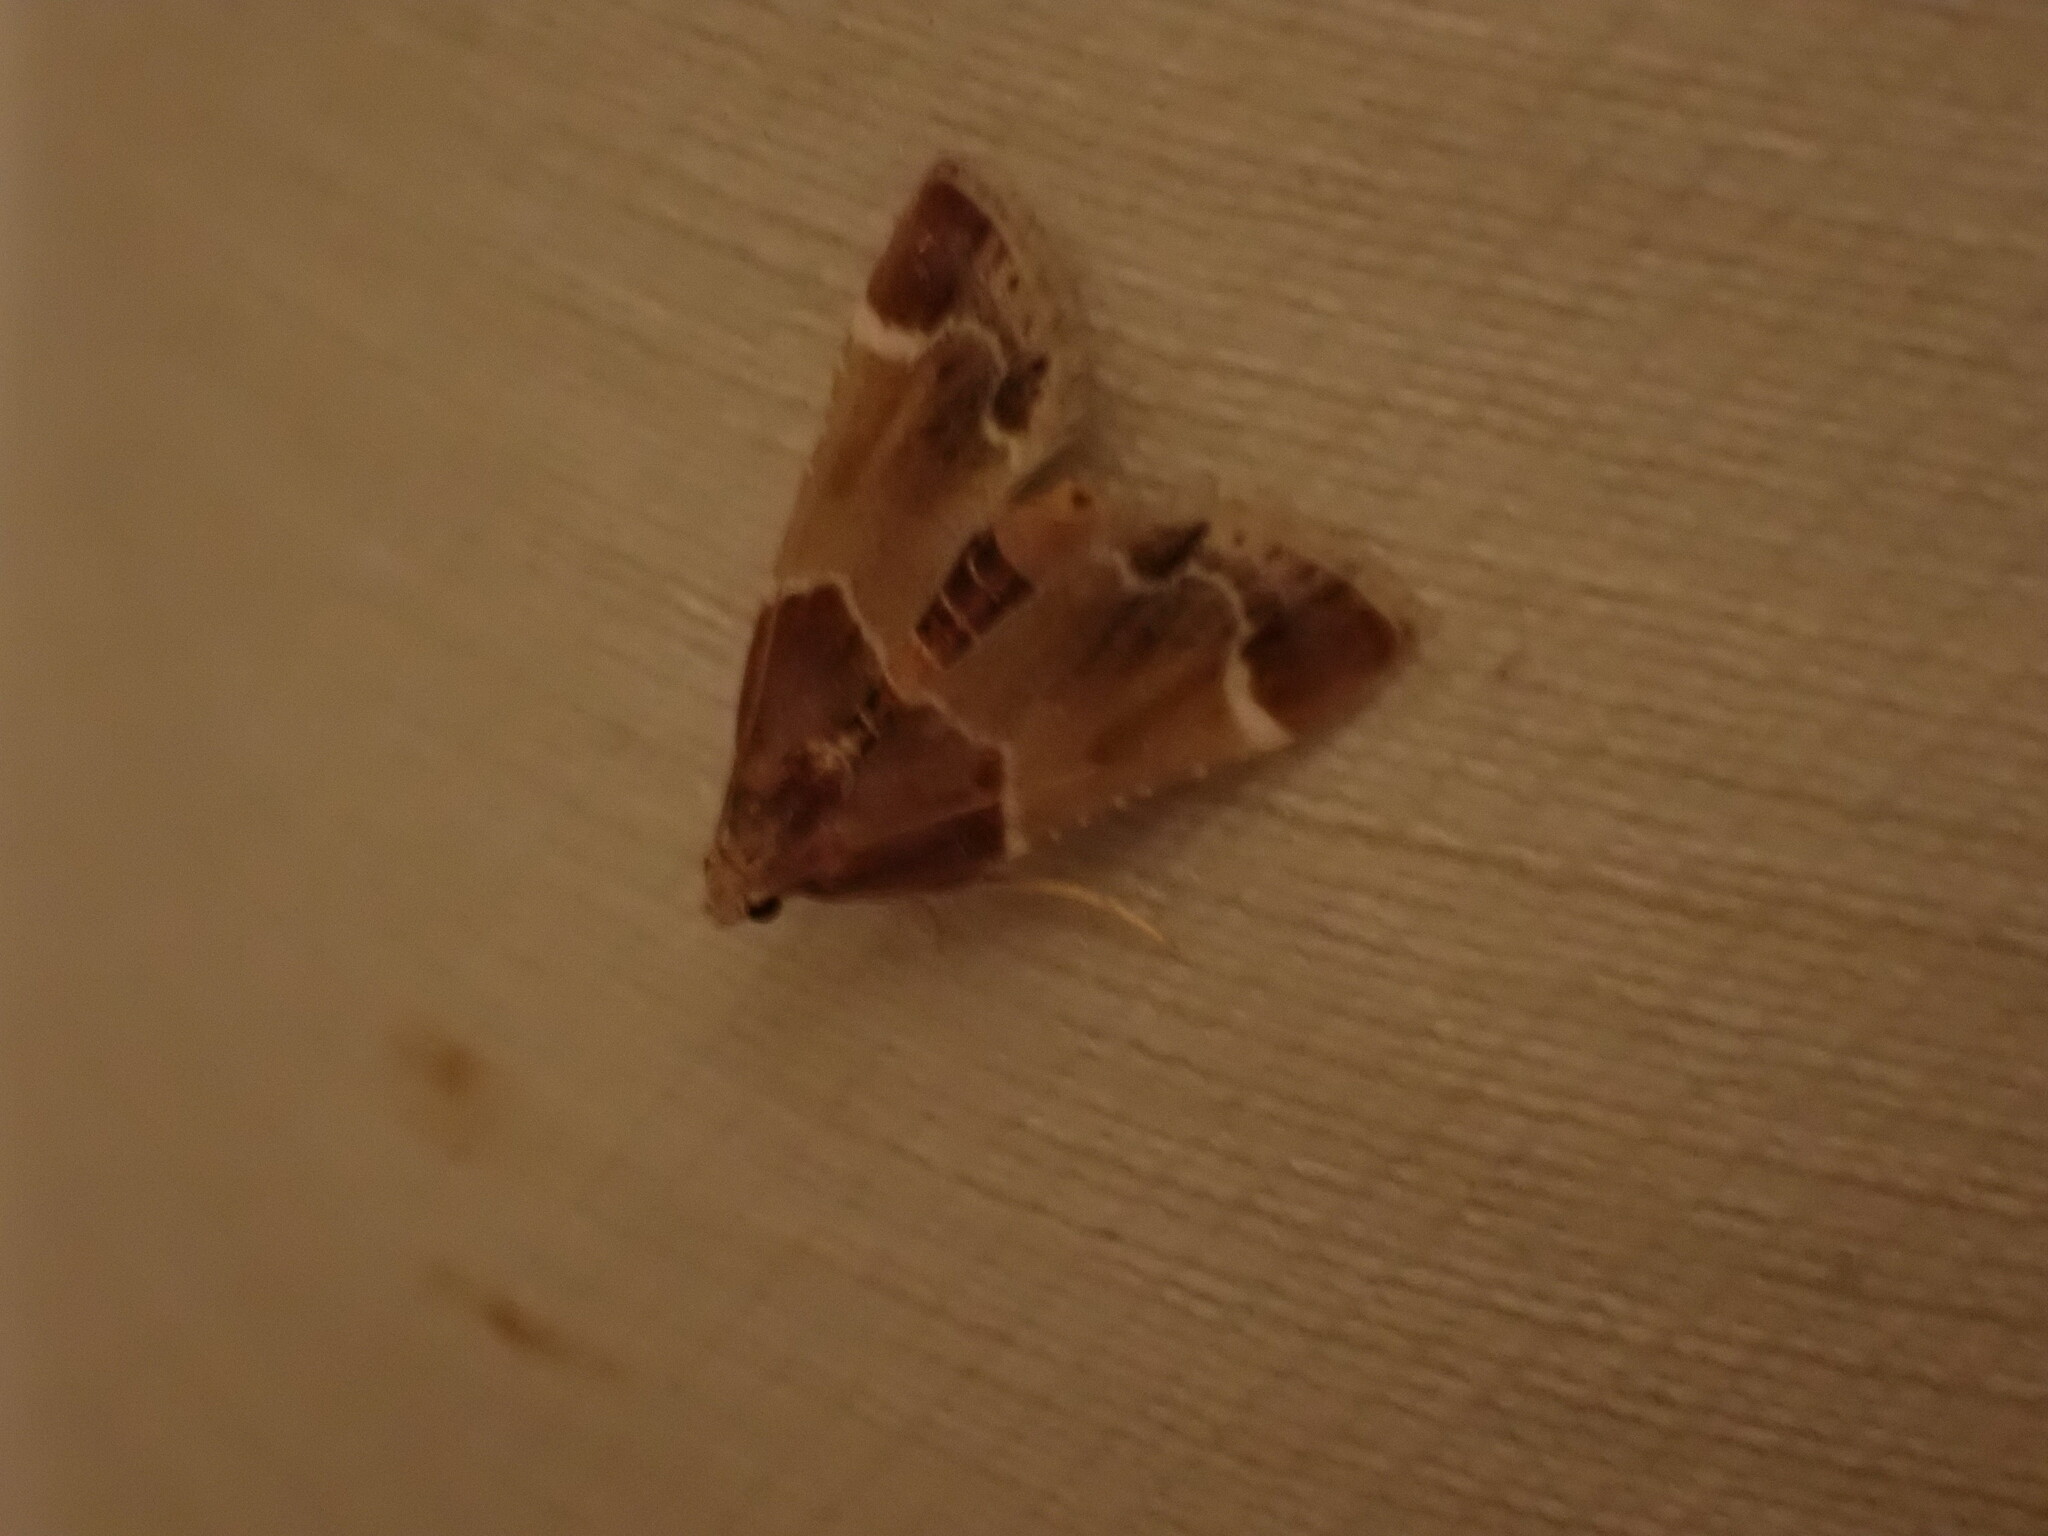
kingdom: Animalia
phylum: Arthropoda
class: Insecta
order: Lepidoptera
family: Pyralidae
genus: Pyralis
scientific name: Pyralis farinalis
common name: Meal moth
